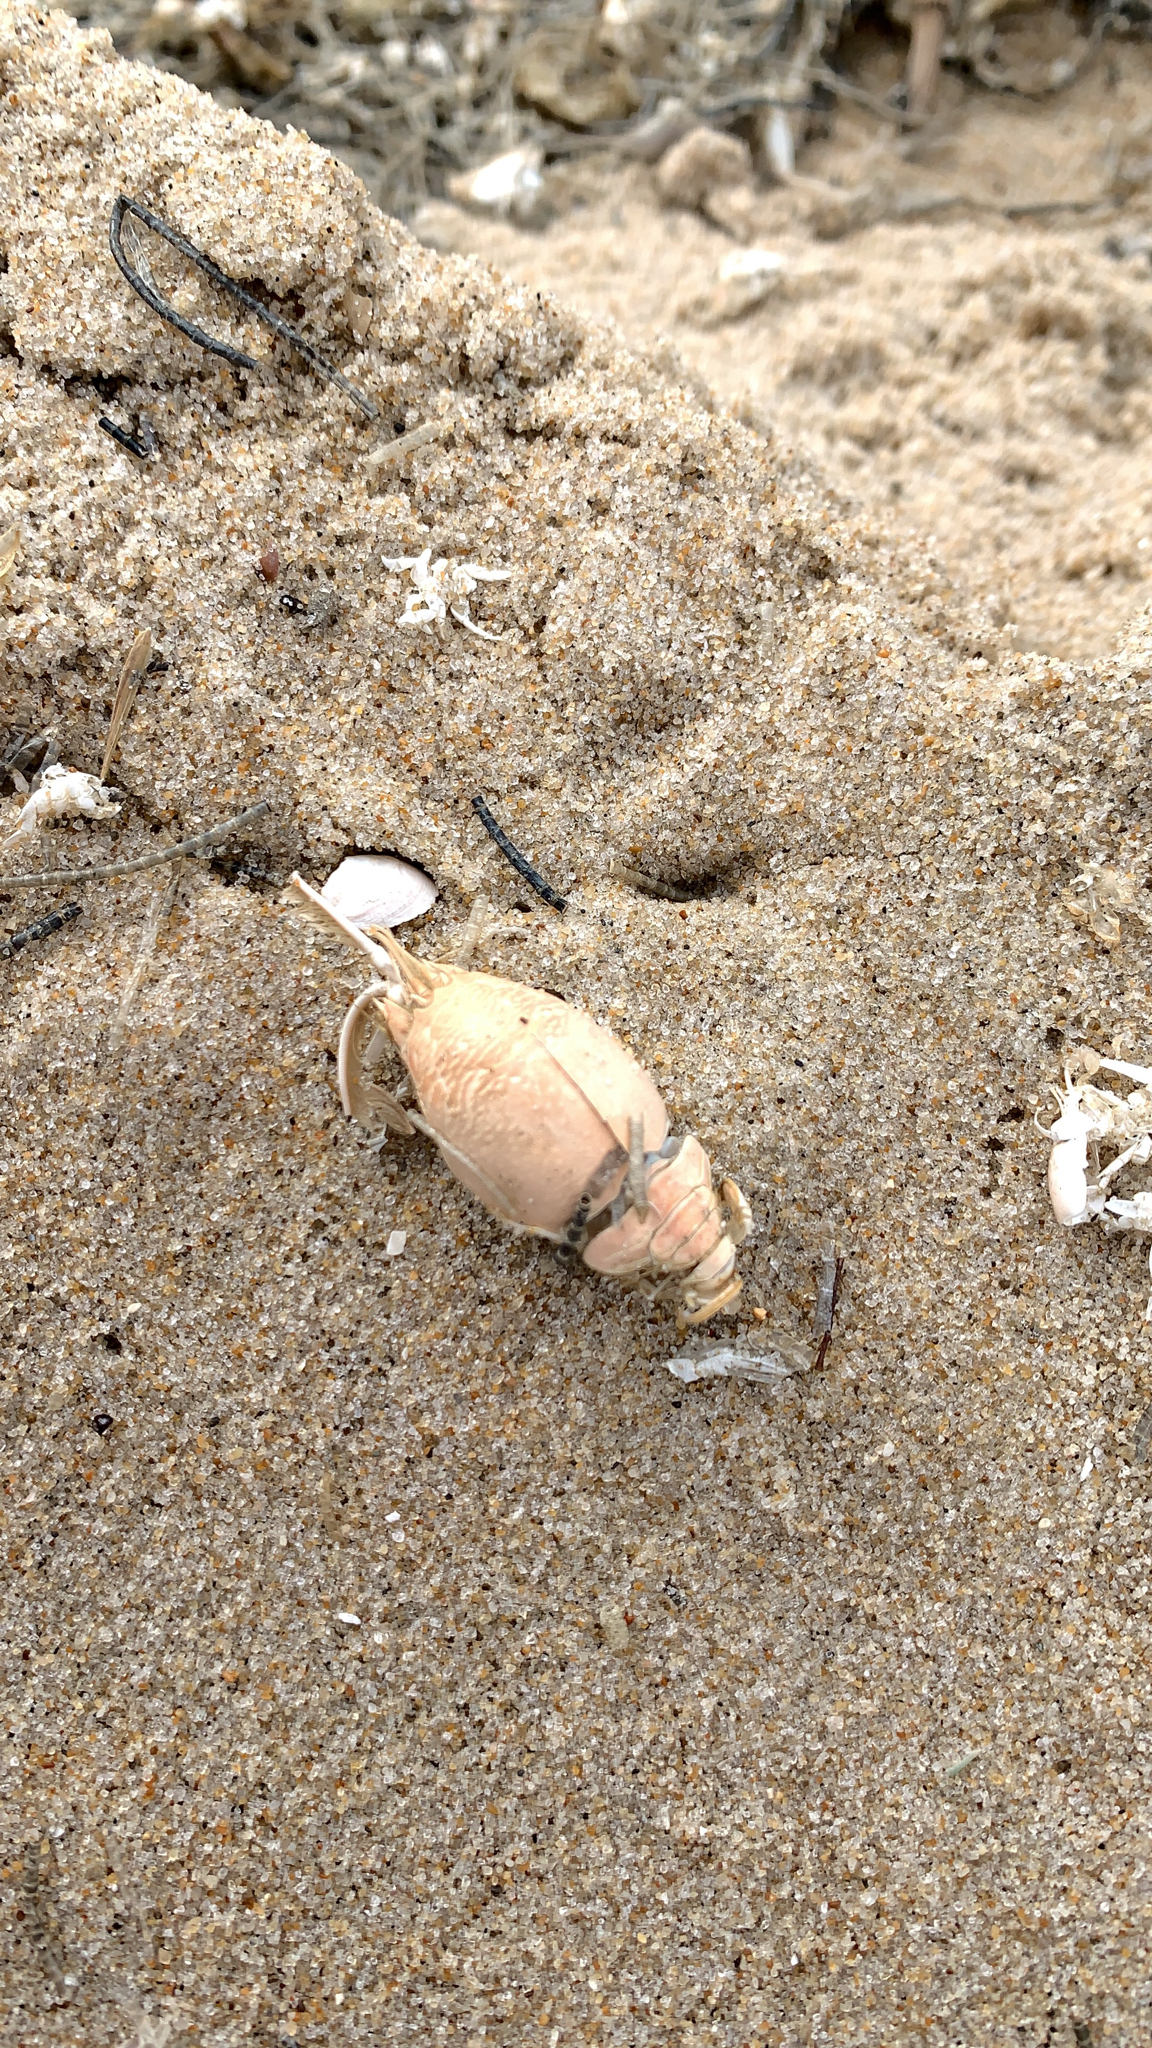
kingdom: Animalia
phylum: Arthropoda
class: Malacostraca
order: Decapoda
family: Hippidae
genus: Emerita
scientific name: Emerita talpoida
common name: Atlantic sand crab
